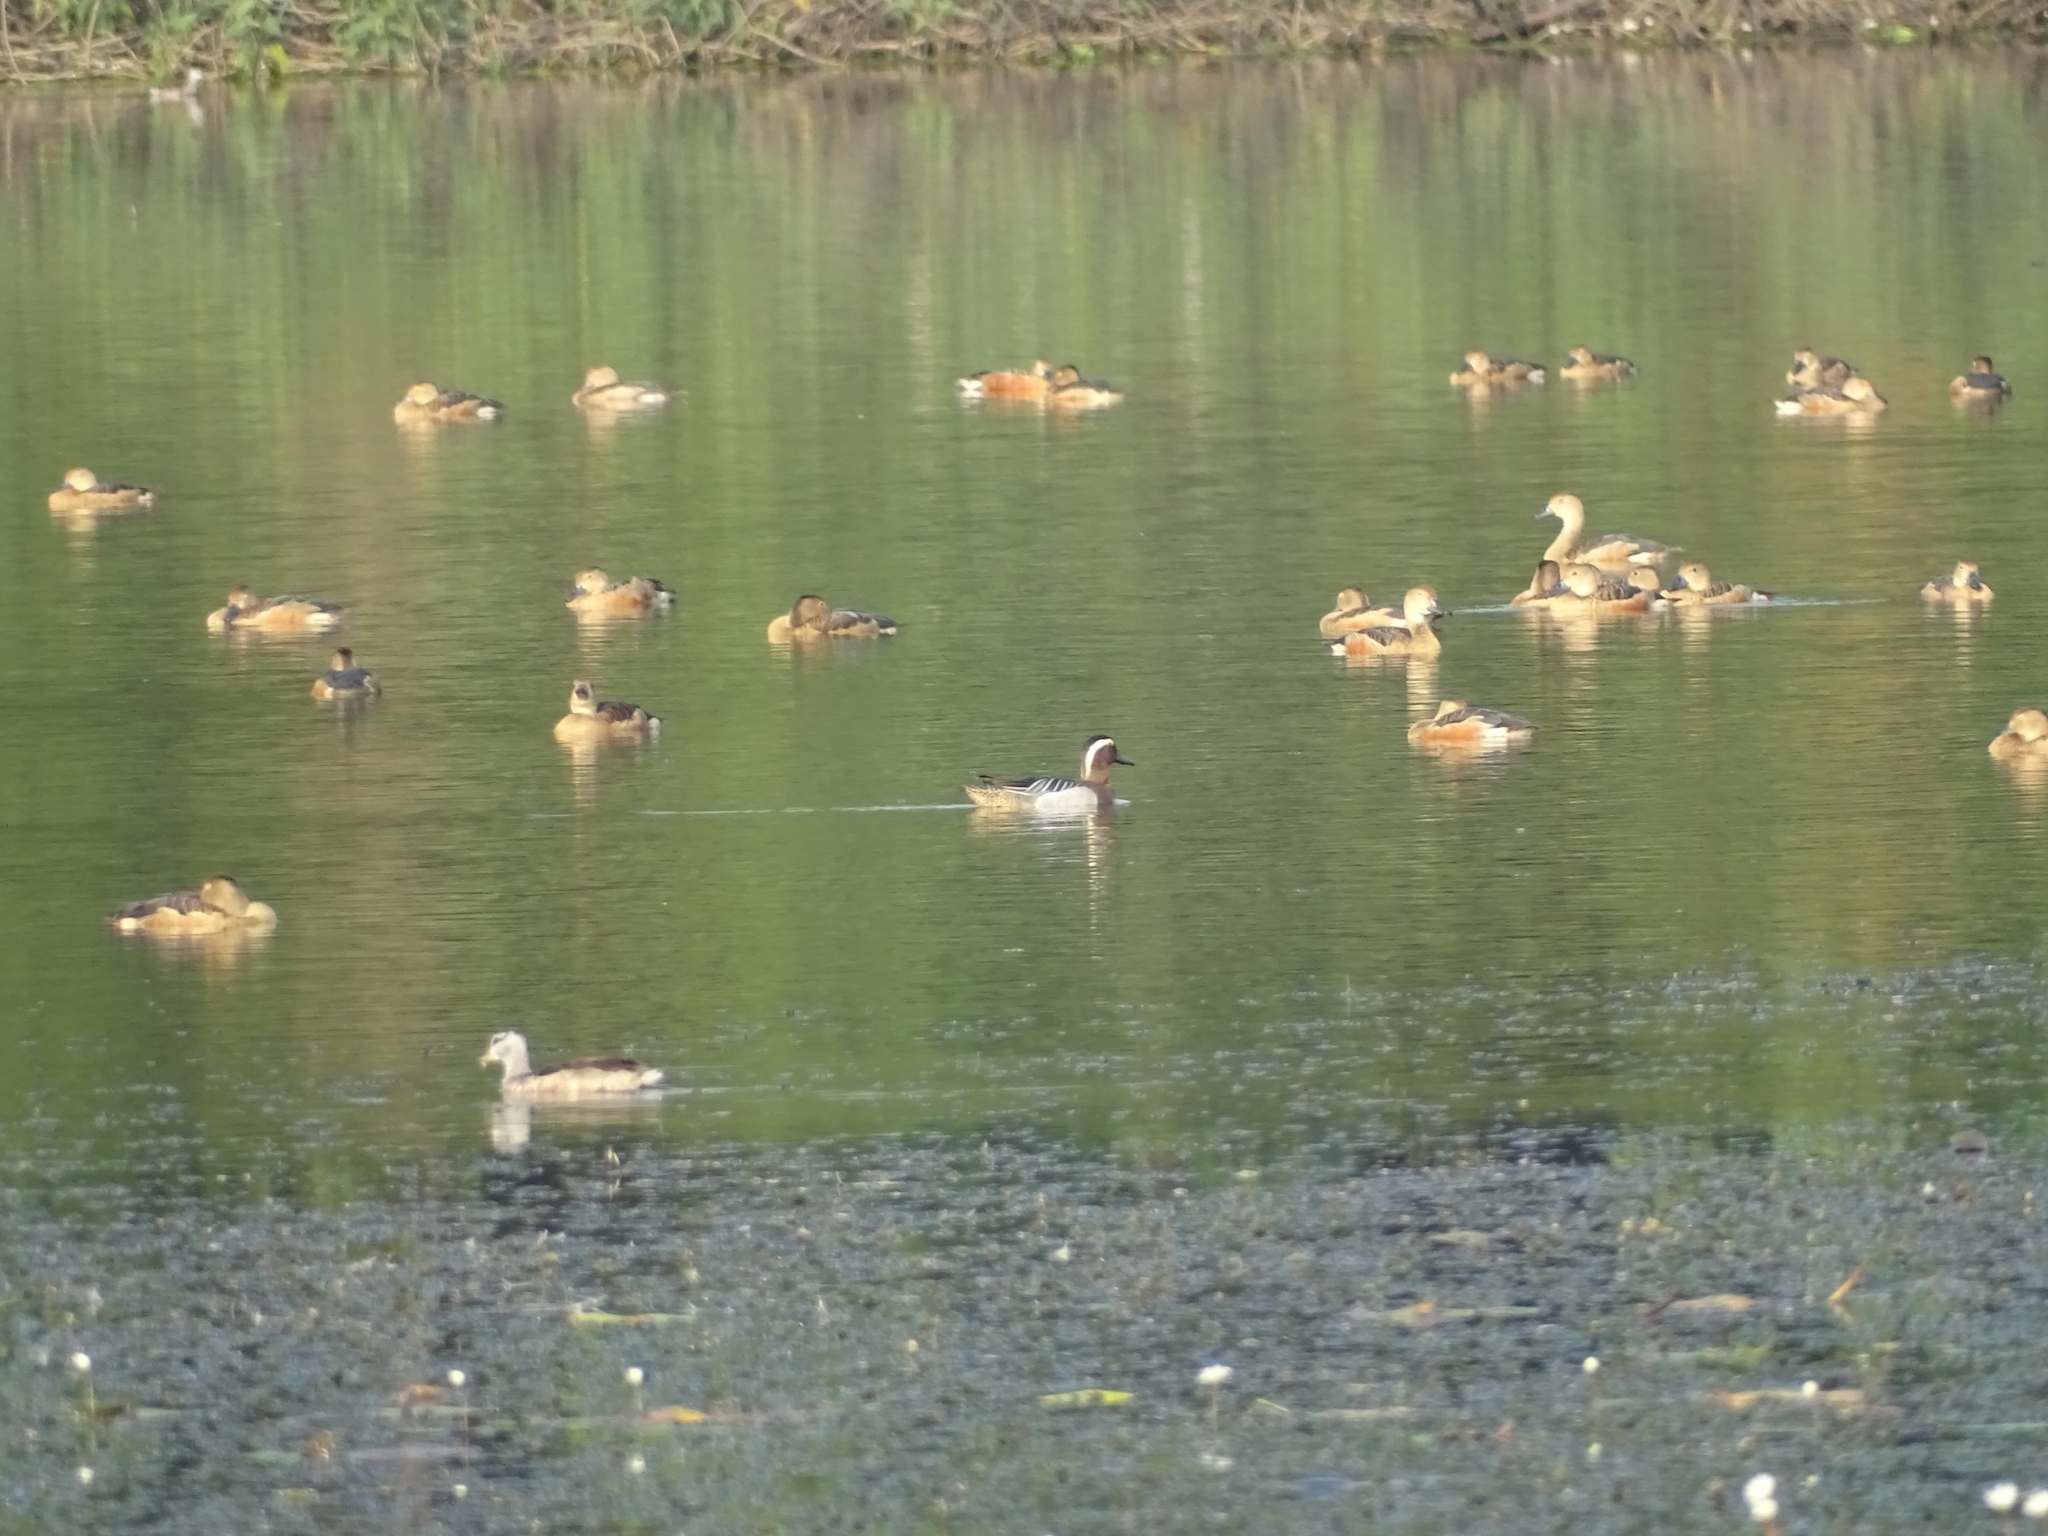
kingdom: Animalia
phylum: Chordata
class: Aves
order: Anseriformes
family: Anatidae
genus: Dendrocygna
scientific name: Dendrocygna javanica
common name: Lesser whistling-duck
